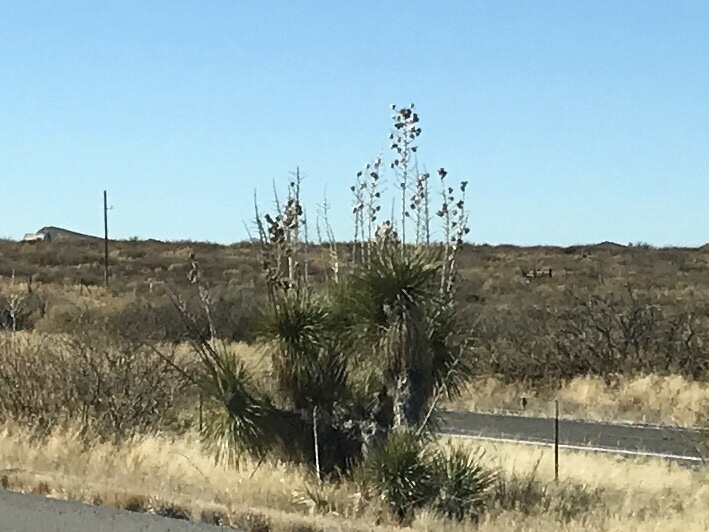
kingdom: Plantae
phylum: Tracheophyta
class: Liliopsida
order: Asparagales
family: Asparagaceae
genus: Yucca
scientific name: Yucca elata
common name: Palmella
